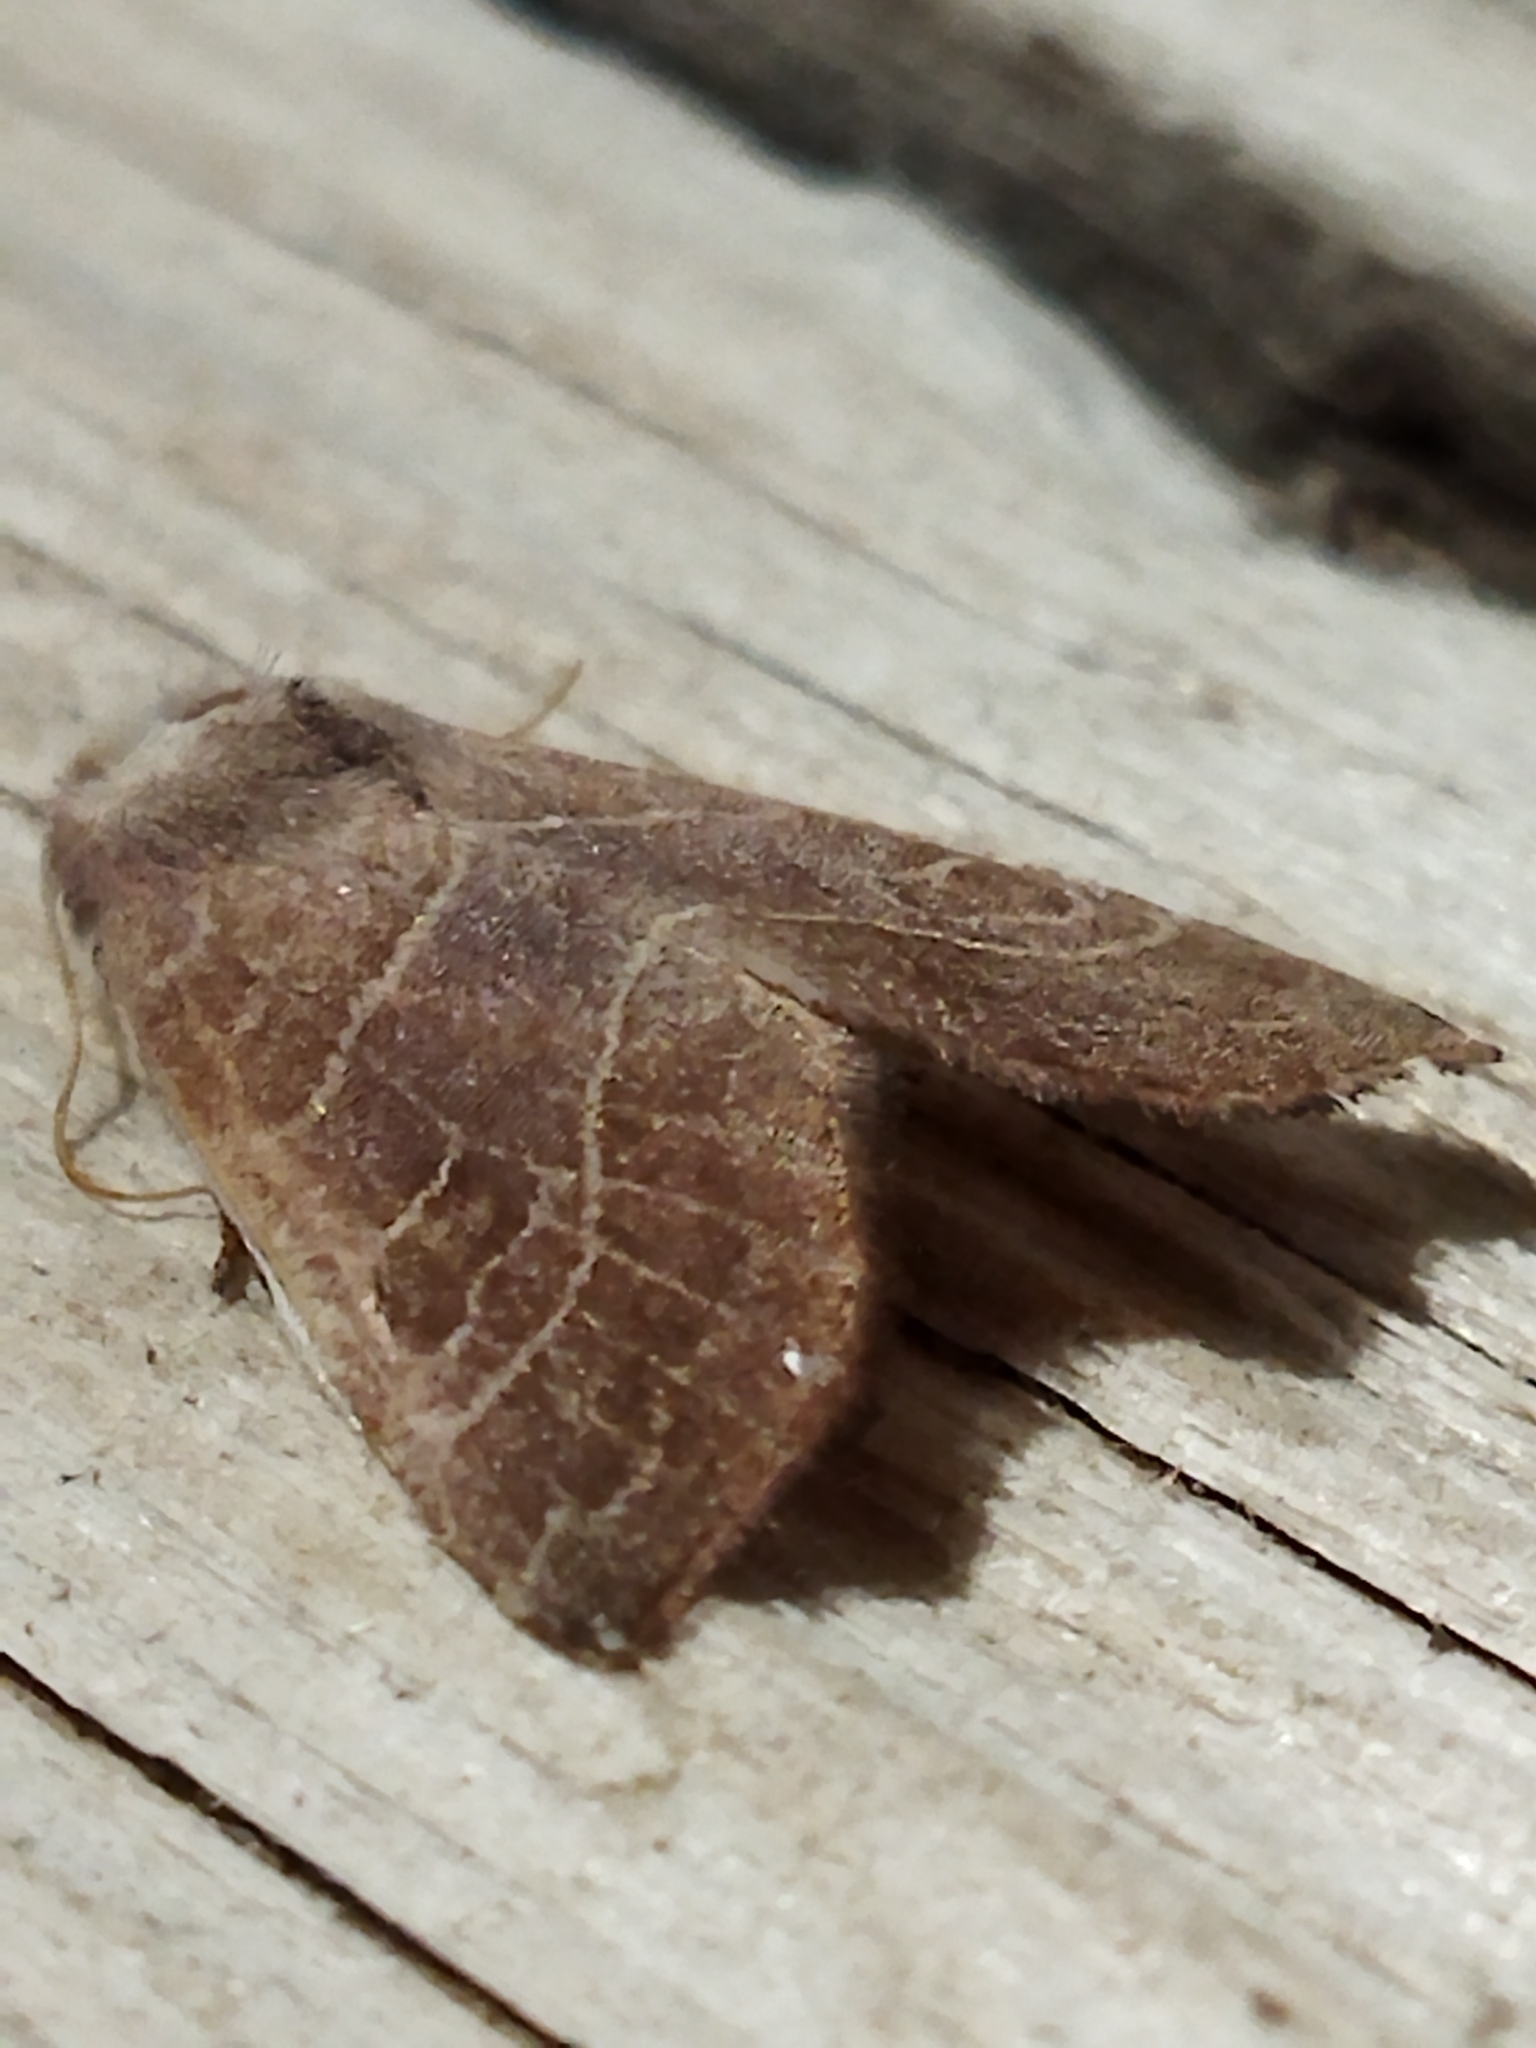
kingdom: Animalia
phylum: Arthropoda
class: Insecta
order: Lepidoptera
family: Noctuidae
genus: Atethmia
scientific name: Atethmia ambusta
